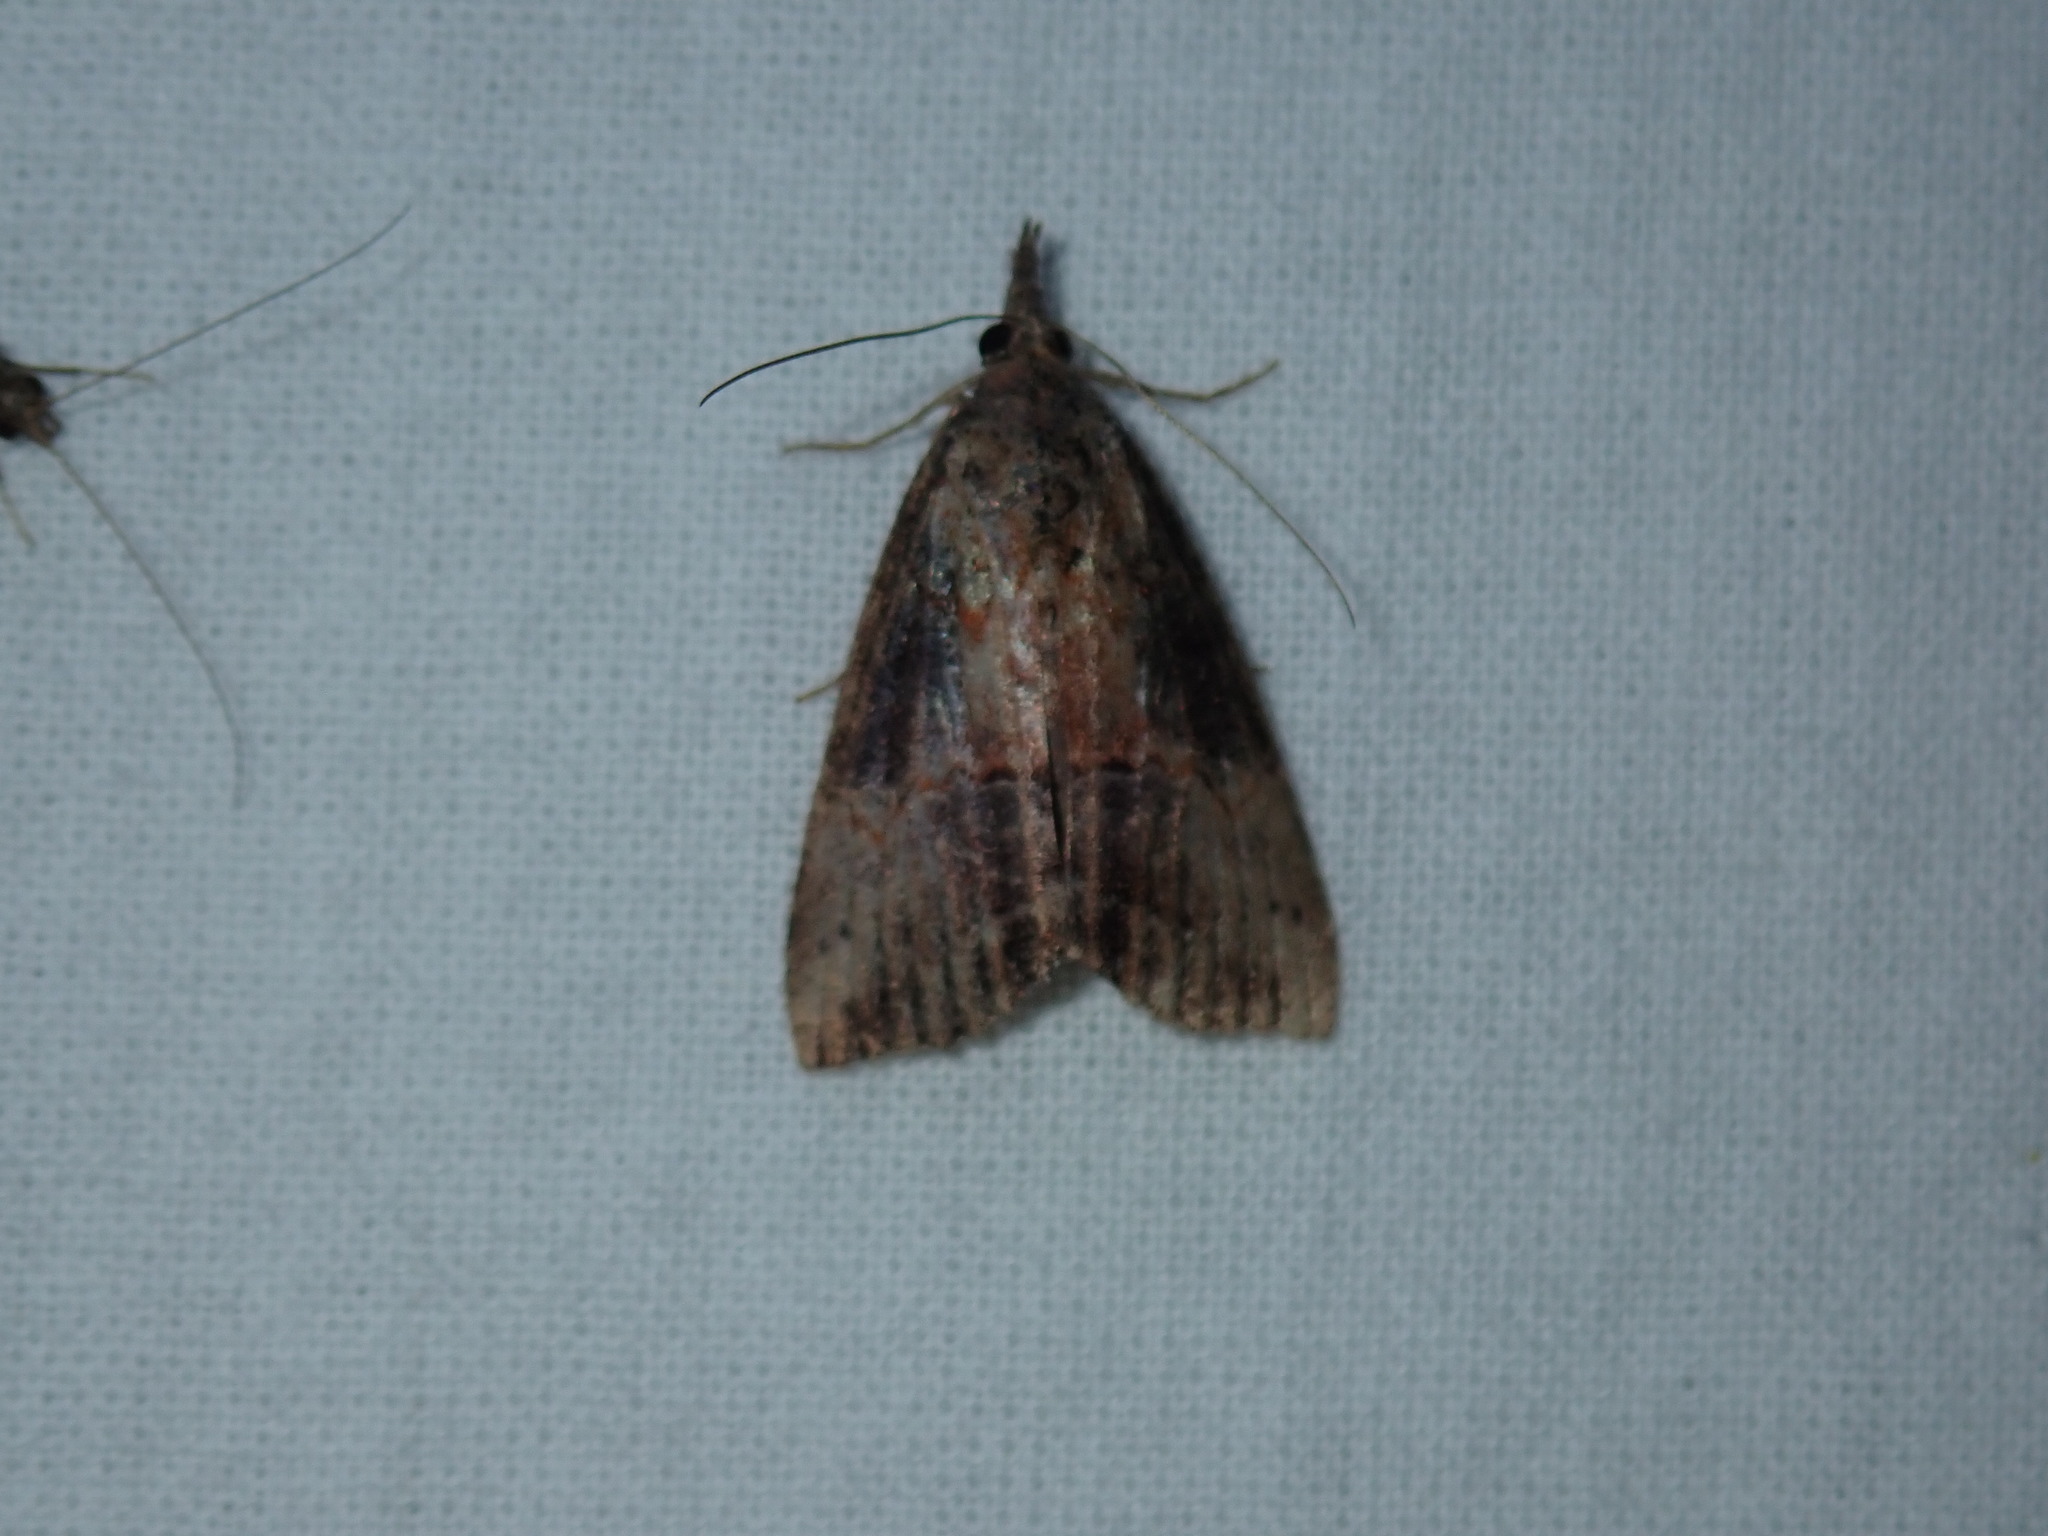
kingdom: Animalia
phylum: Arthropoda
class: Insecta
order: Lepidoptera
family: Erebidae
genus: Hypena
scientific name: Hypena scabra
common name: Green cloverworm
